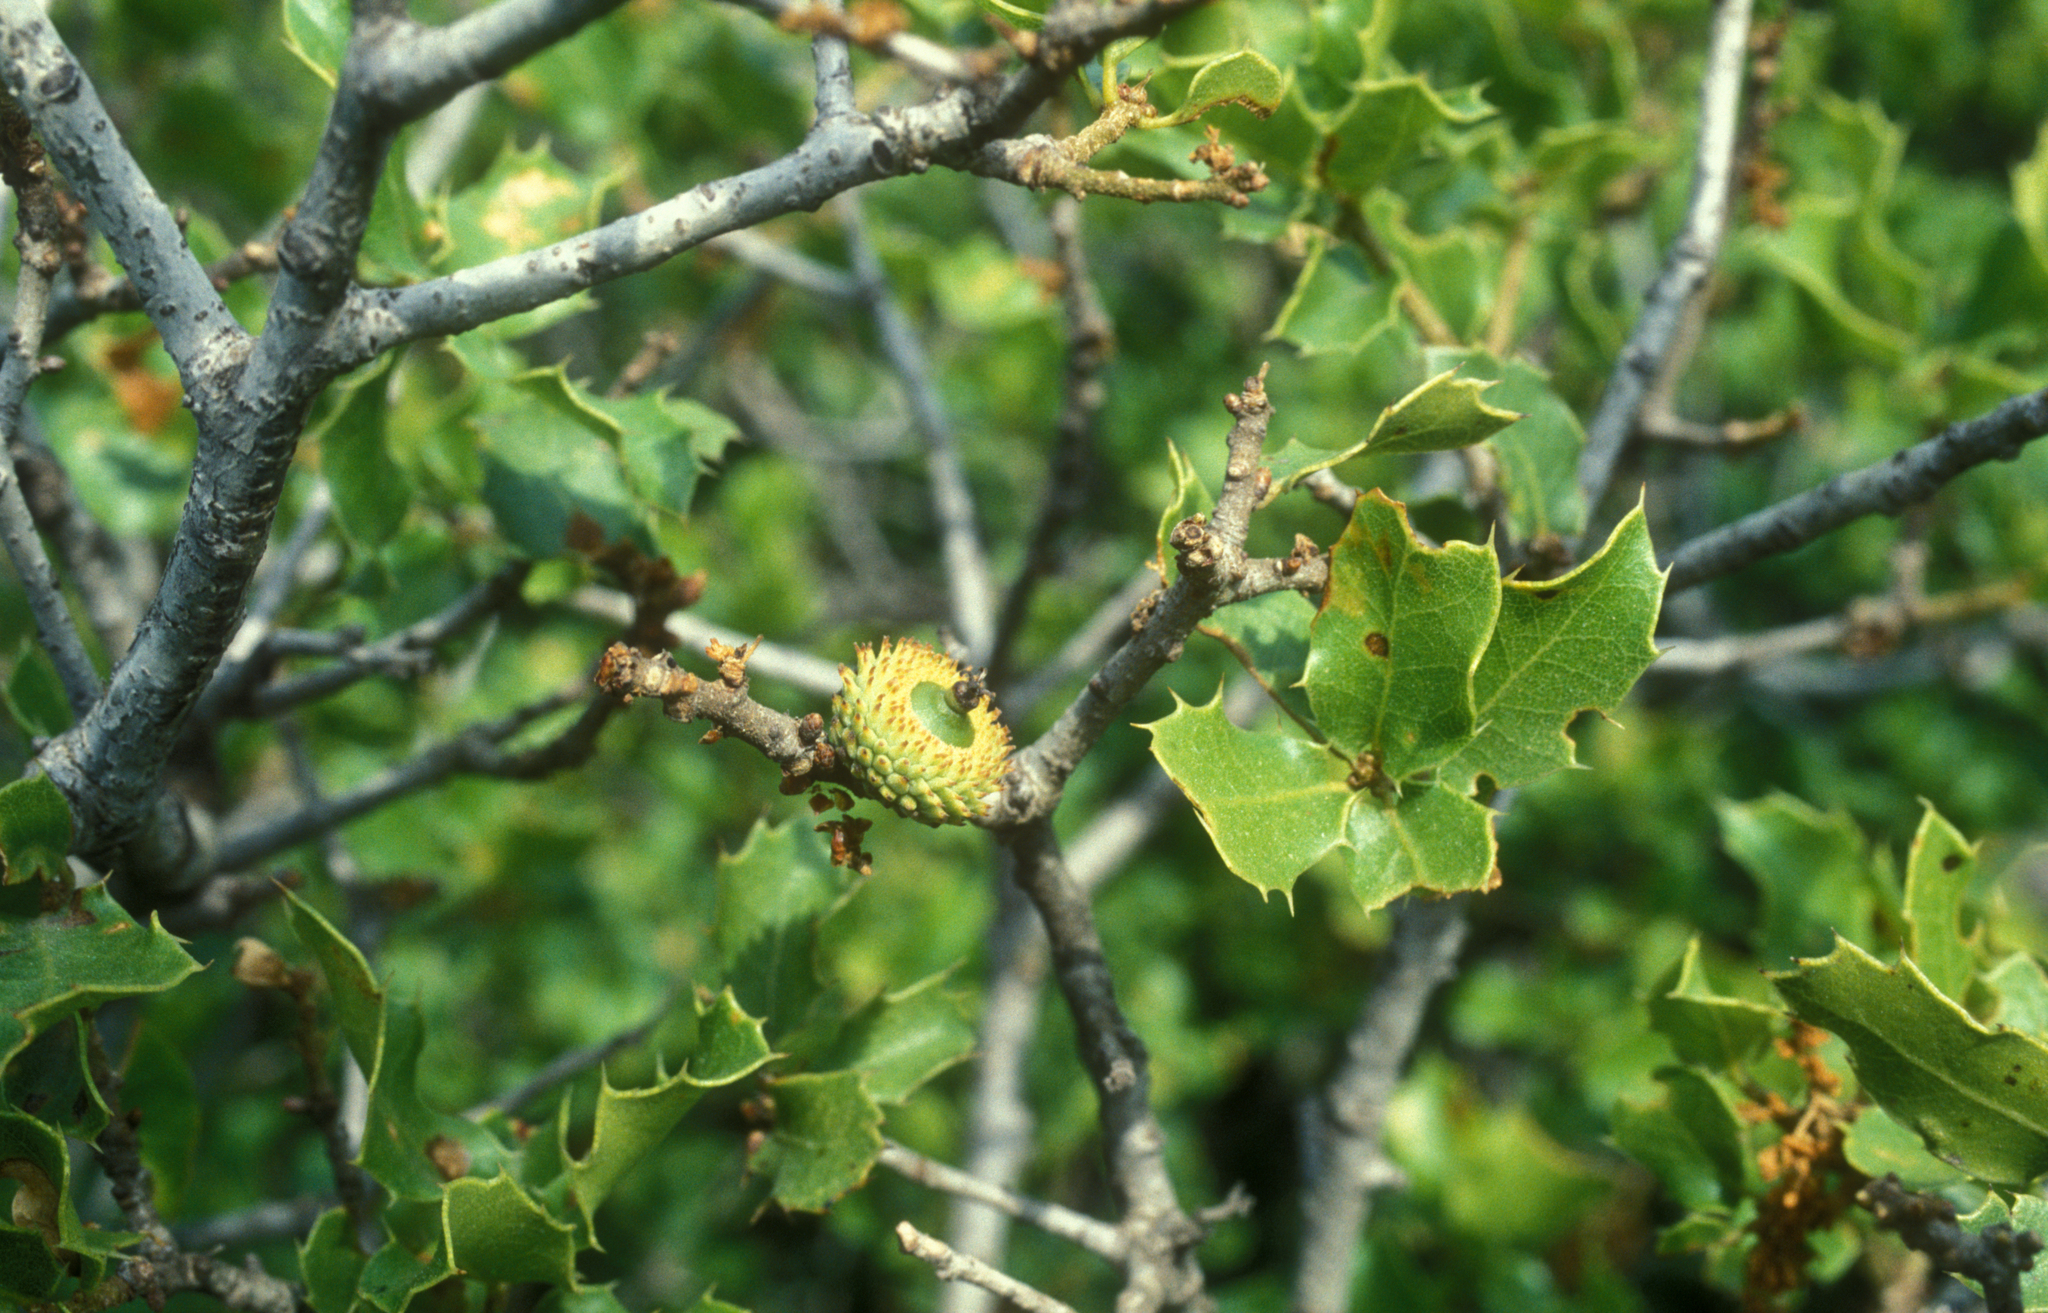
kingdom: Plantae
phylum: Tracheophyta
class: Magnoliopsida
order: Fagales
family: Fagaceae
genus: Quercus
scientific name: Quercus coccifera
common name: Kermes oak
